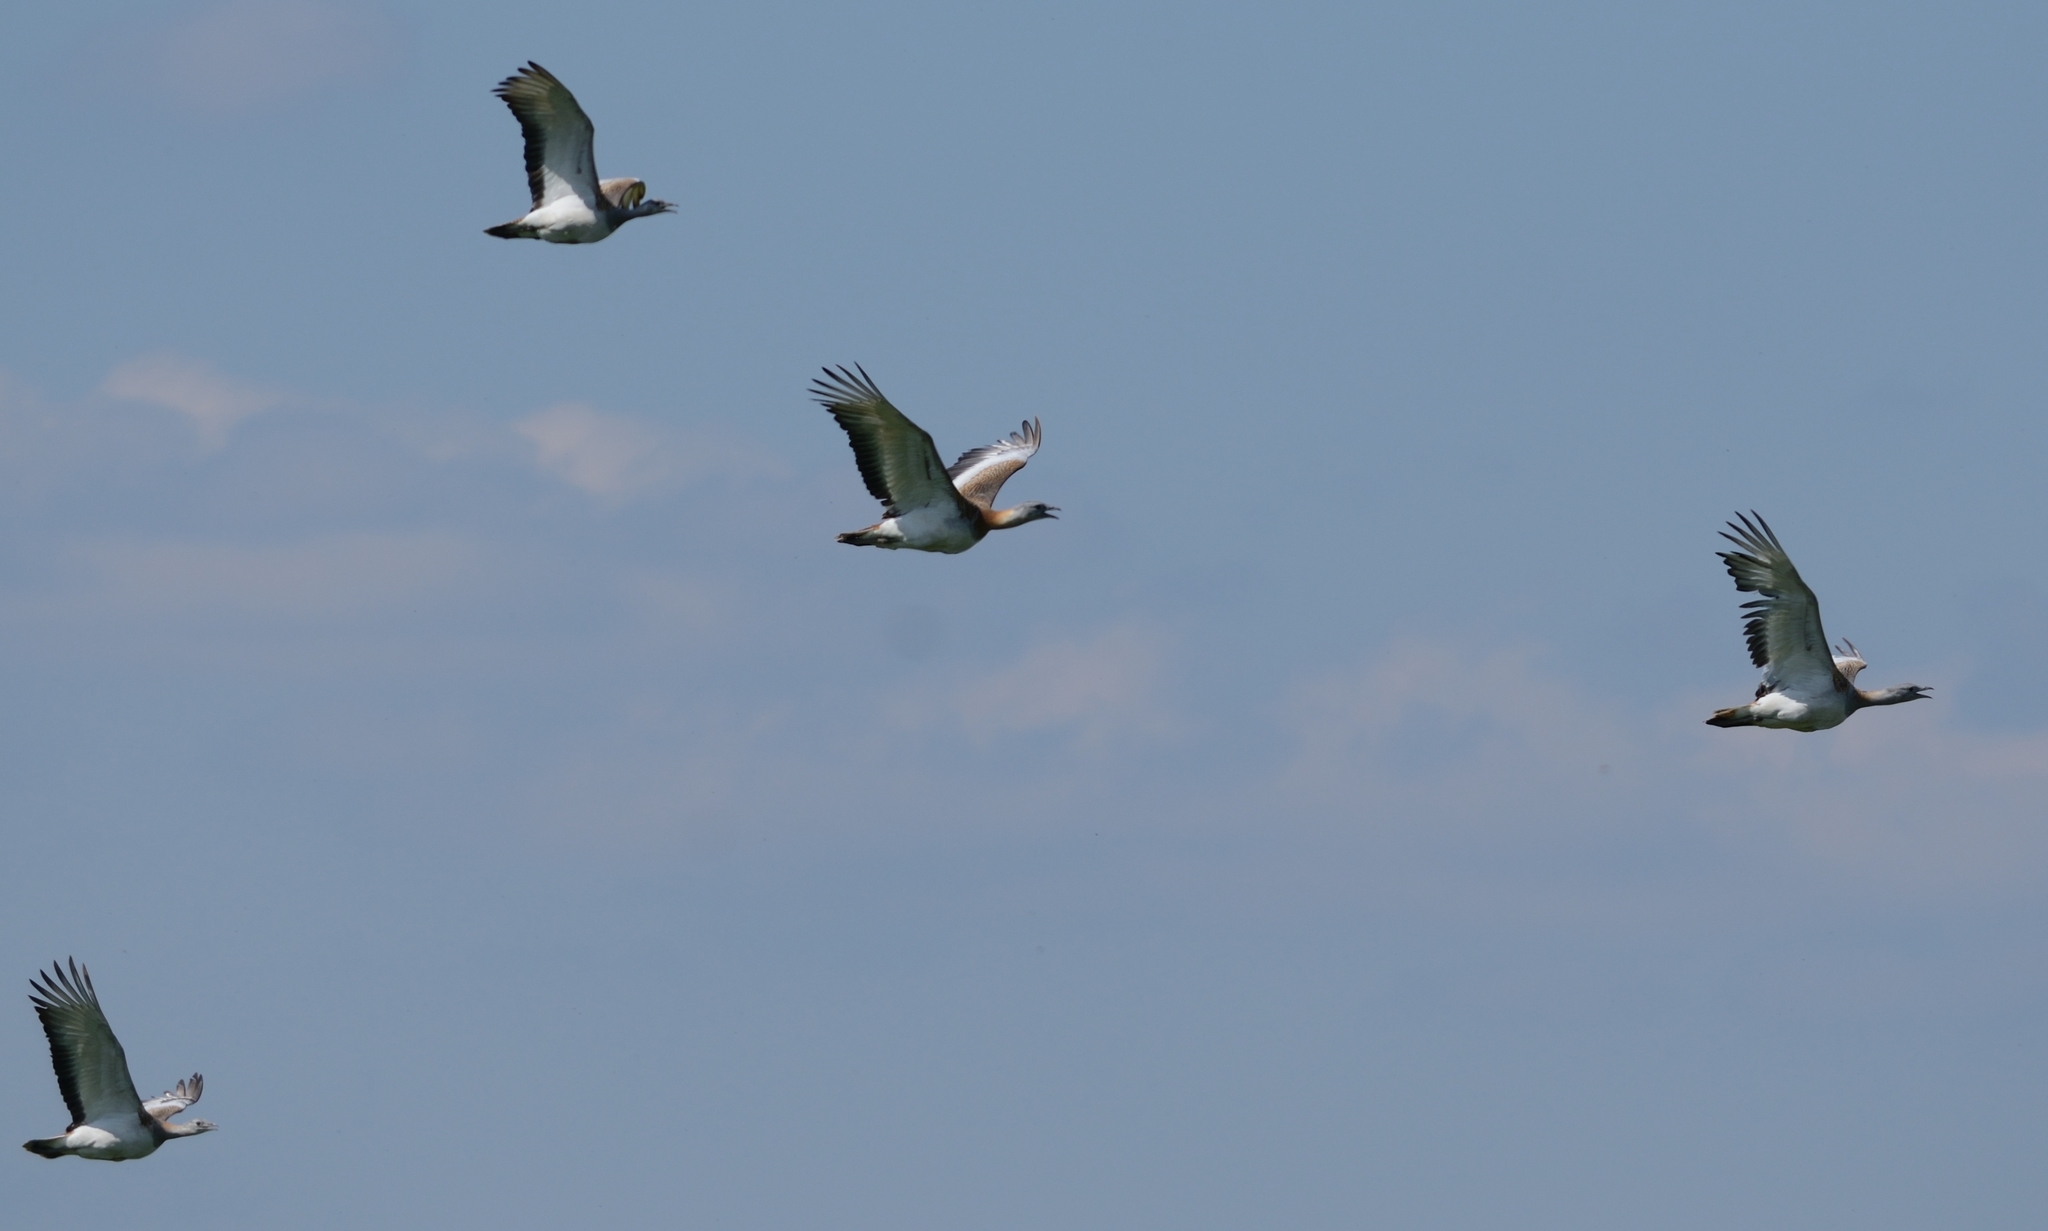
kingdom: Animalia
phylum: Chordata
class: Aves
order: Otidiformes
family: Otididae
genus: Otis
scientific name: Otis tarda
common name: Great bustard
